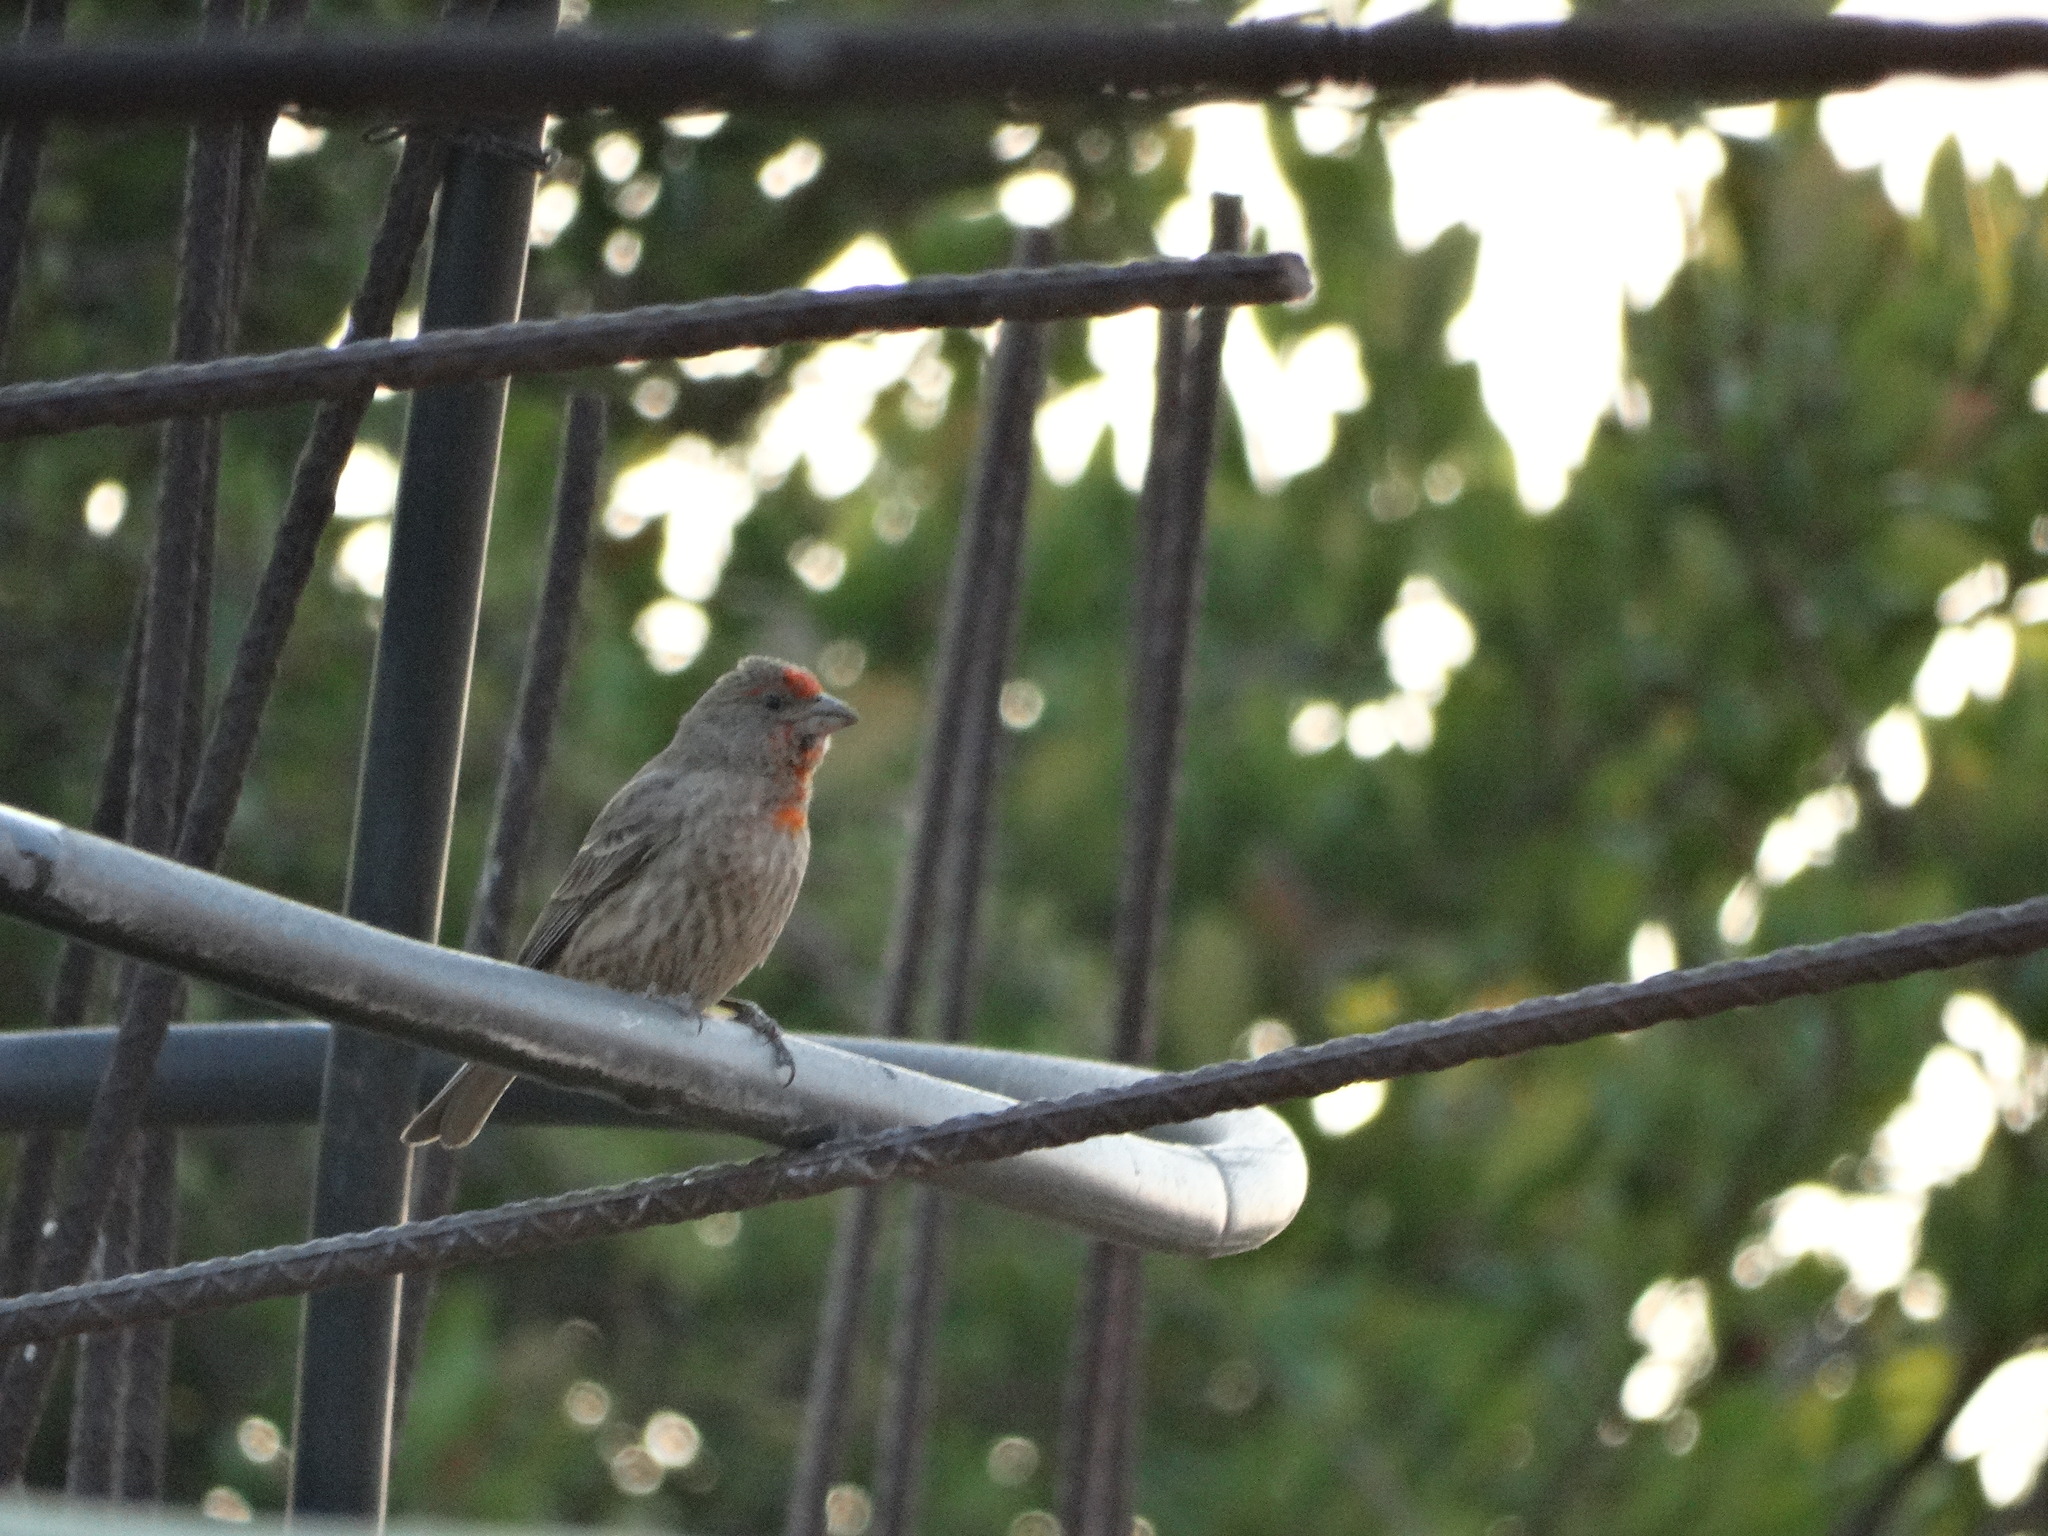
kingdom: Animalia
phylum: Chordata
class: Aves
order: Passeriformes
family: Fringillidae
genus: Haemorhous
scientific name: Haemorhous mexicanus
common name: House finch
